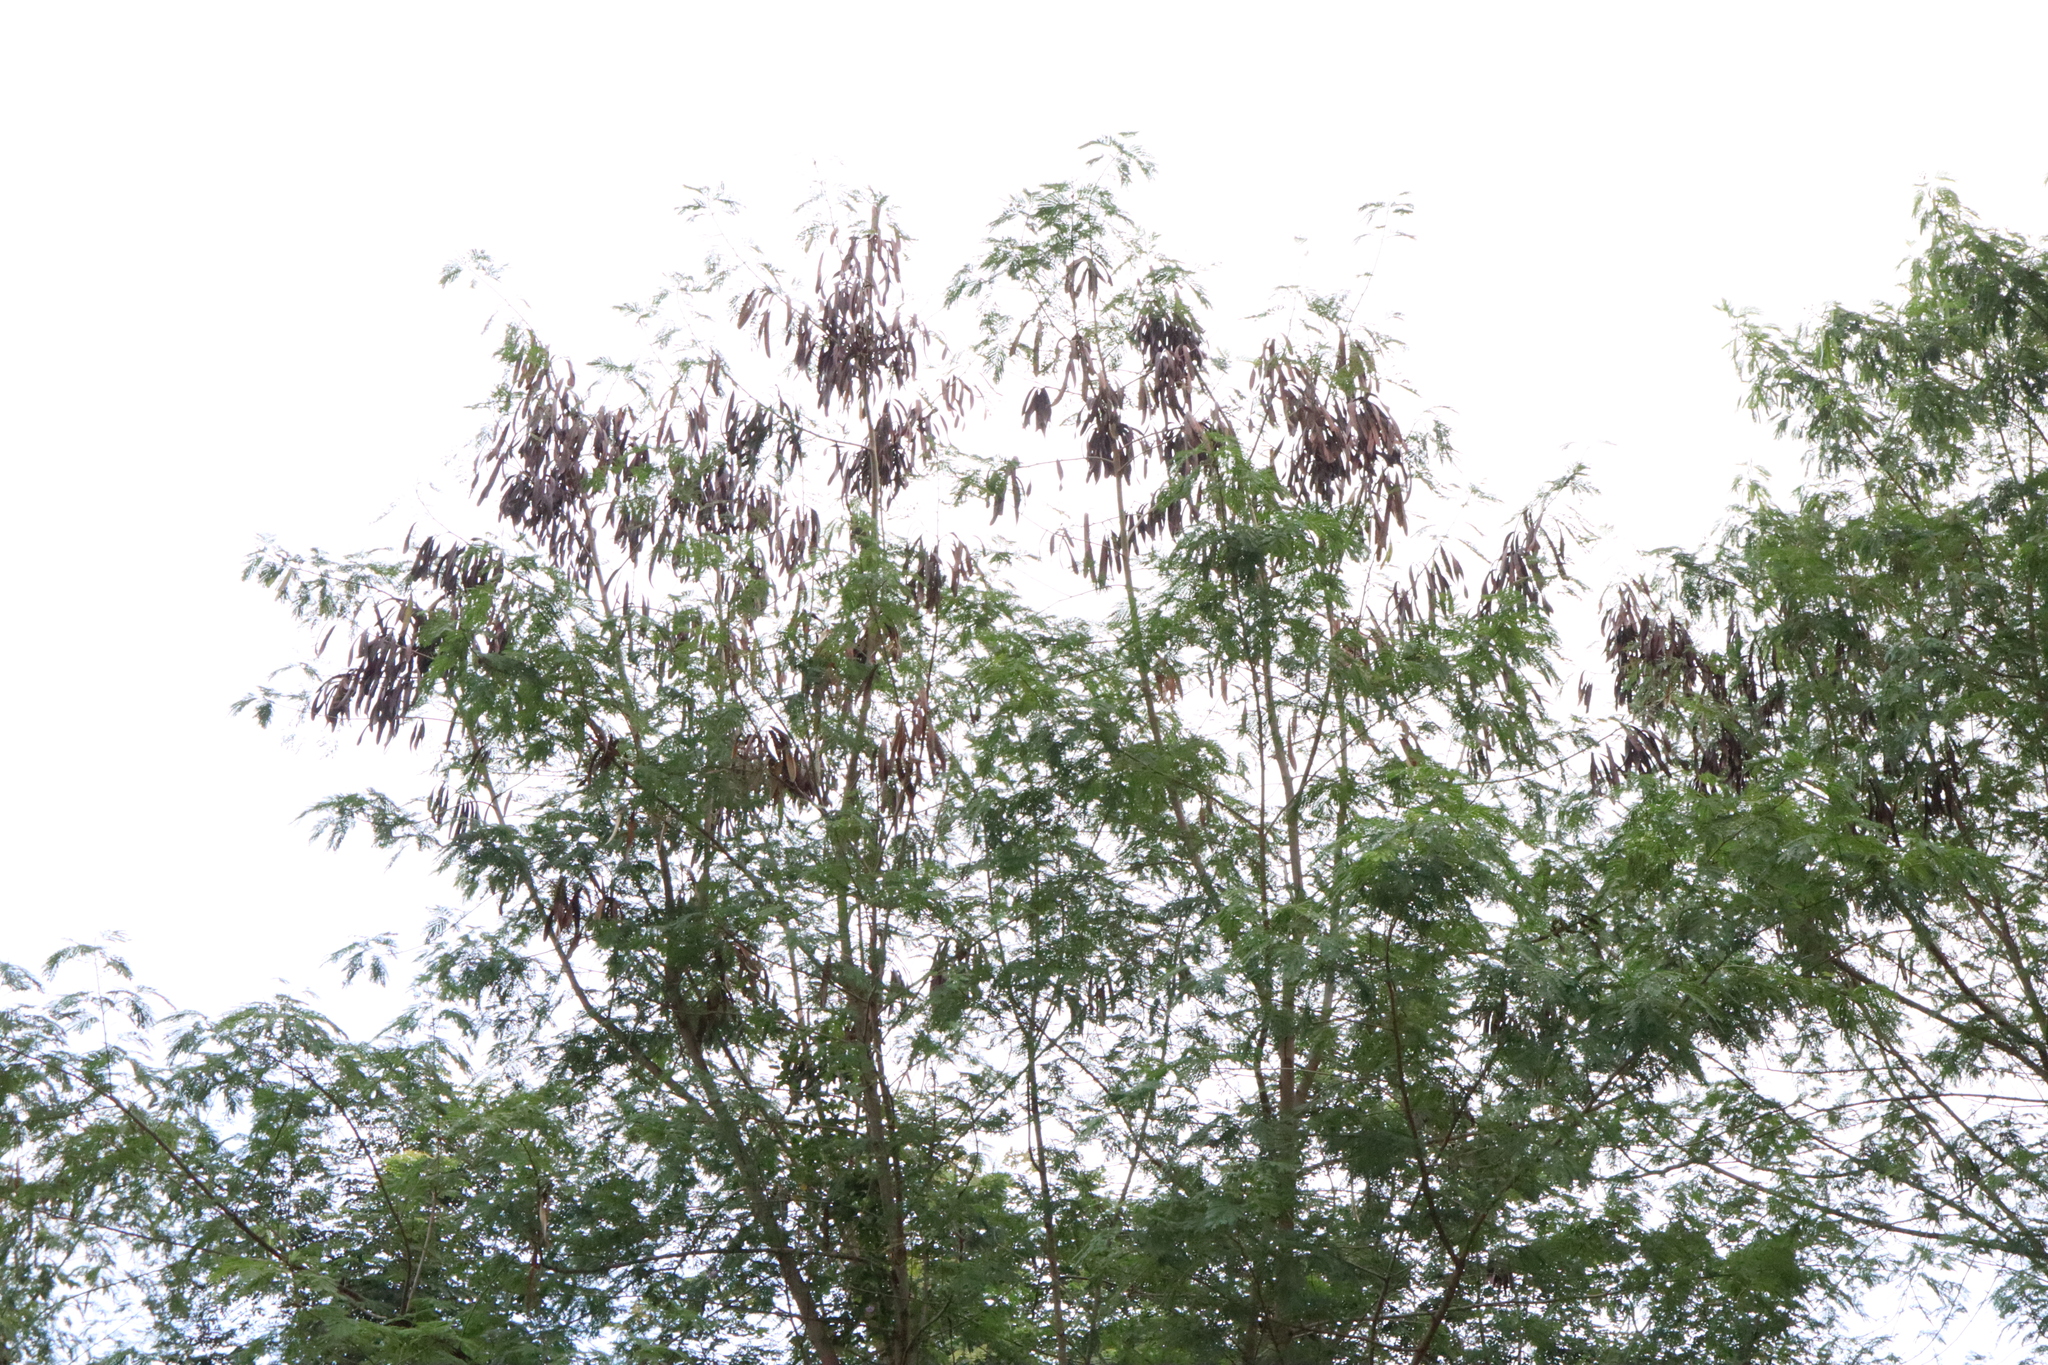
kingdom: Plantae
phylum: Tracheophyta
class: Magnoliopsida
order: Fabales
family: Fabaceae
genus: Leucaena
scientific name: Leucaena leucocephala
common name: White leadtree
